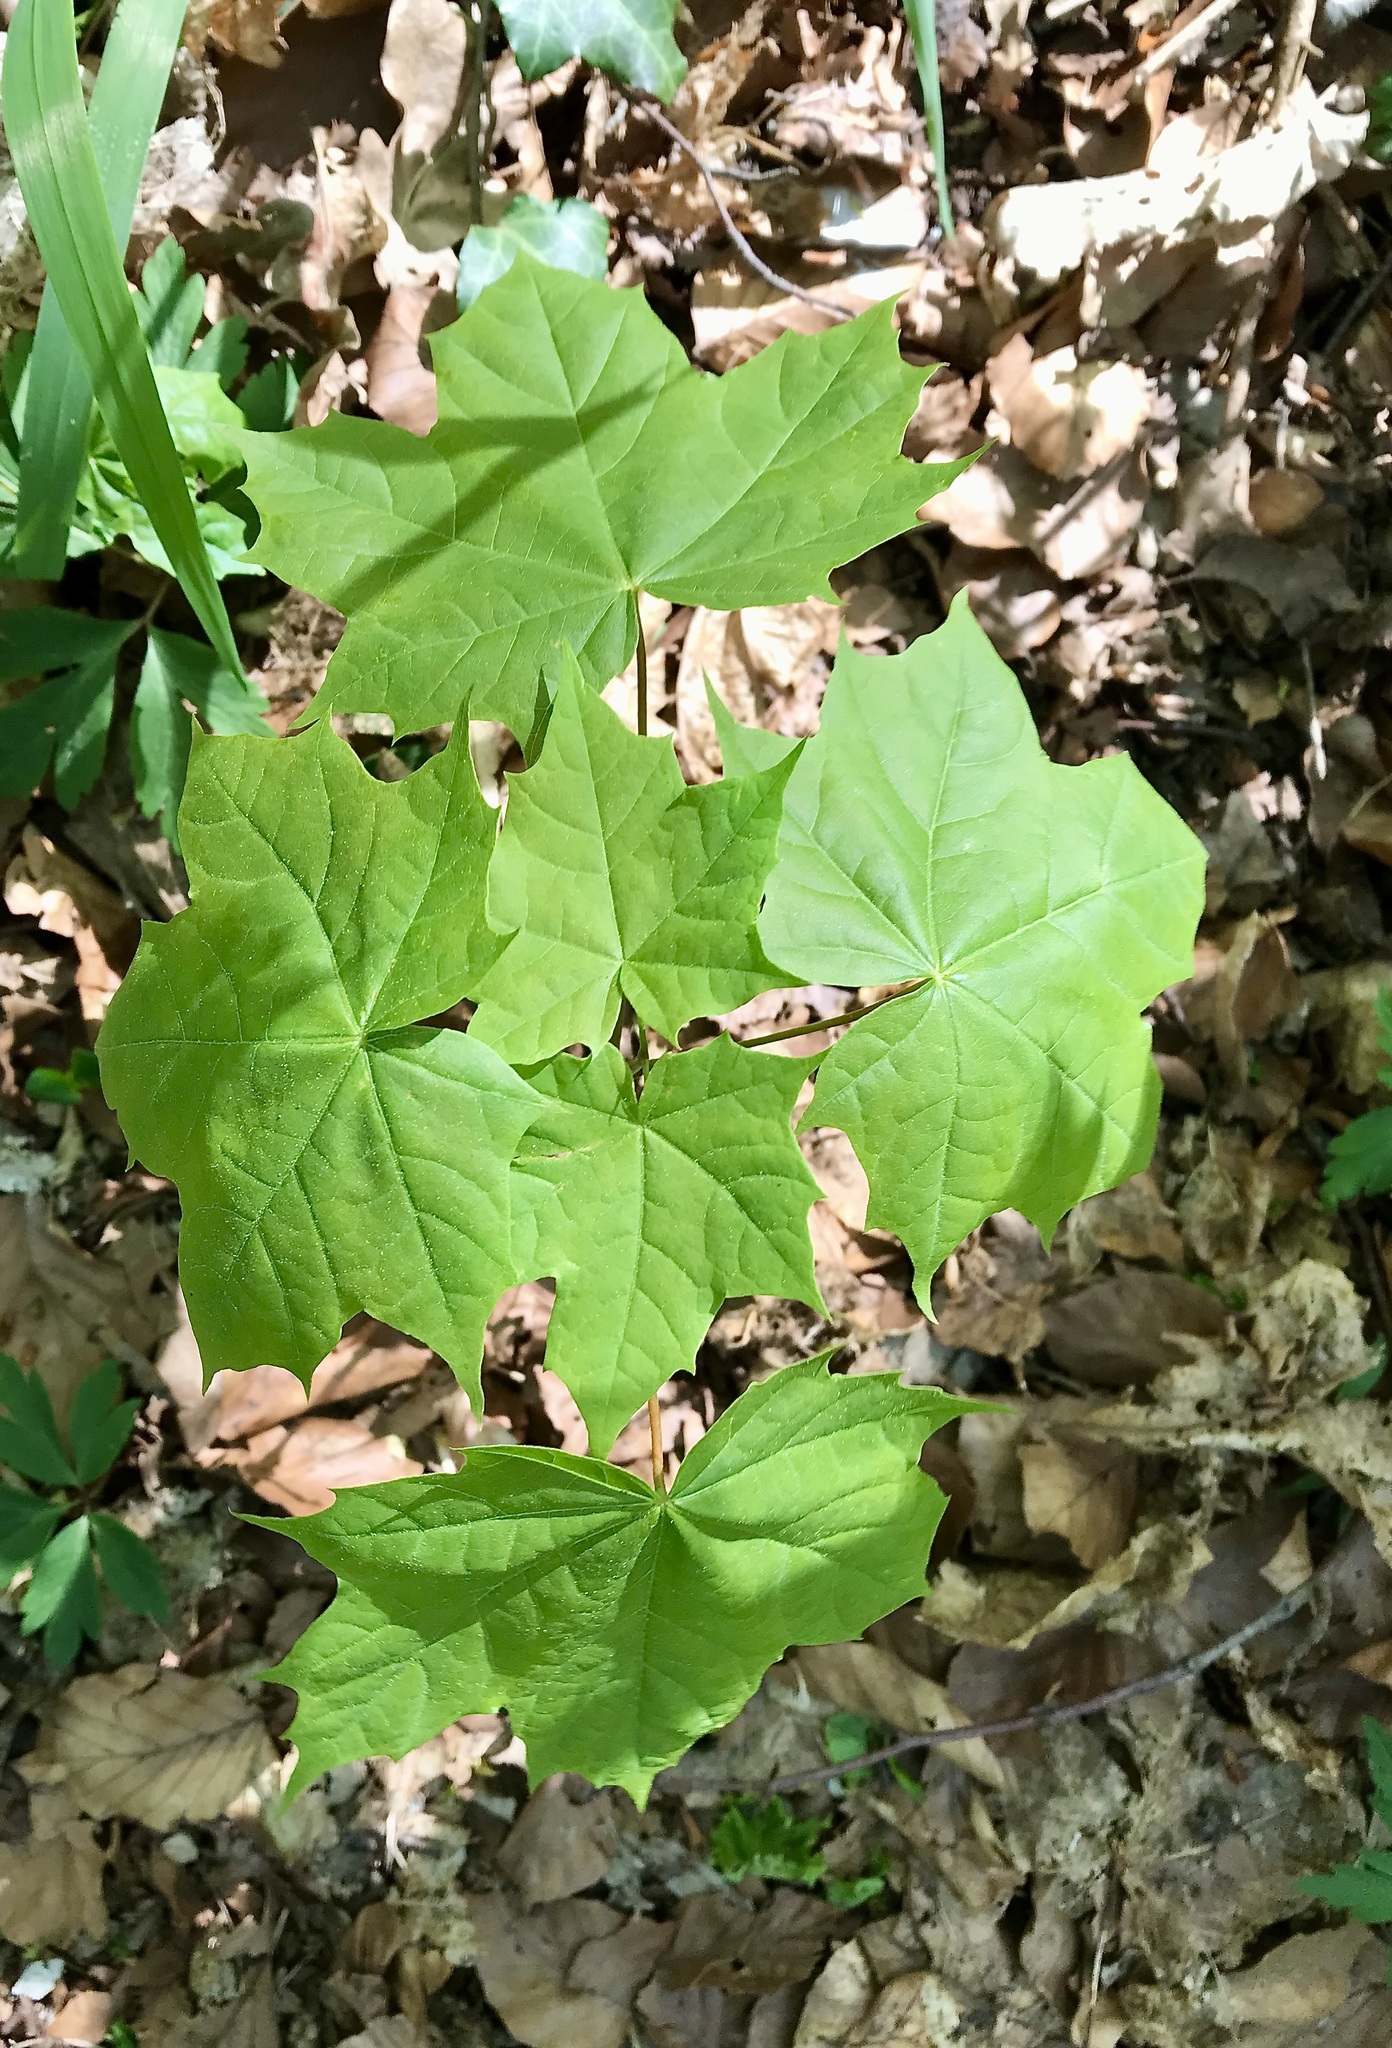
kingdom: Plantae
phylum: Tracheophyta
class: Magnoliopsida
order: Sapindales
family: Sapindaceae
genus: Acer
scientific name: Acer platanoides
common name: Norway maple
